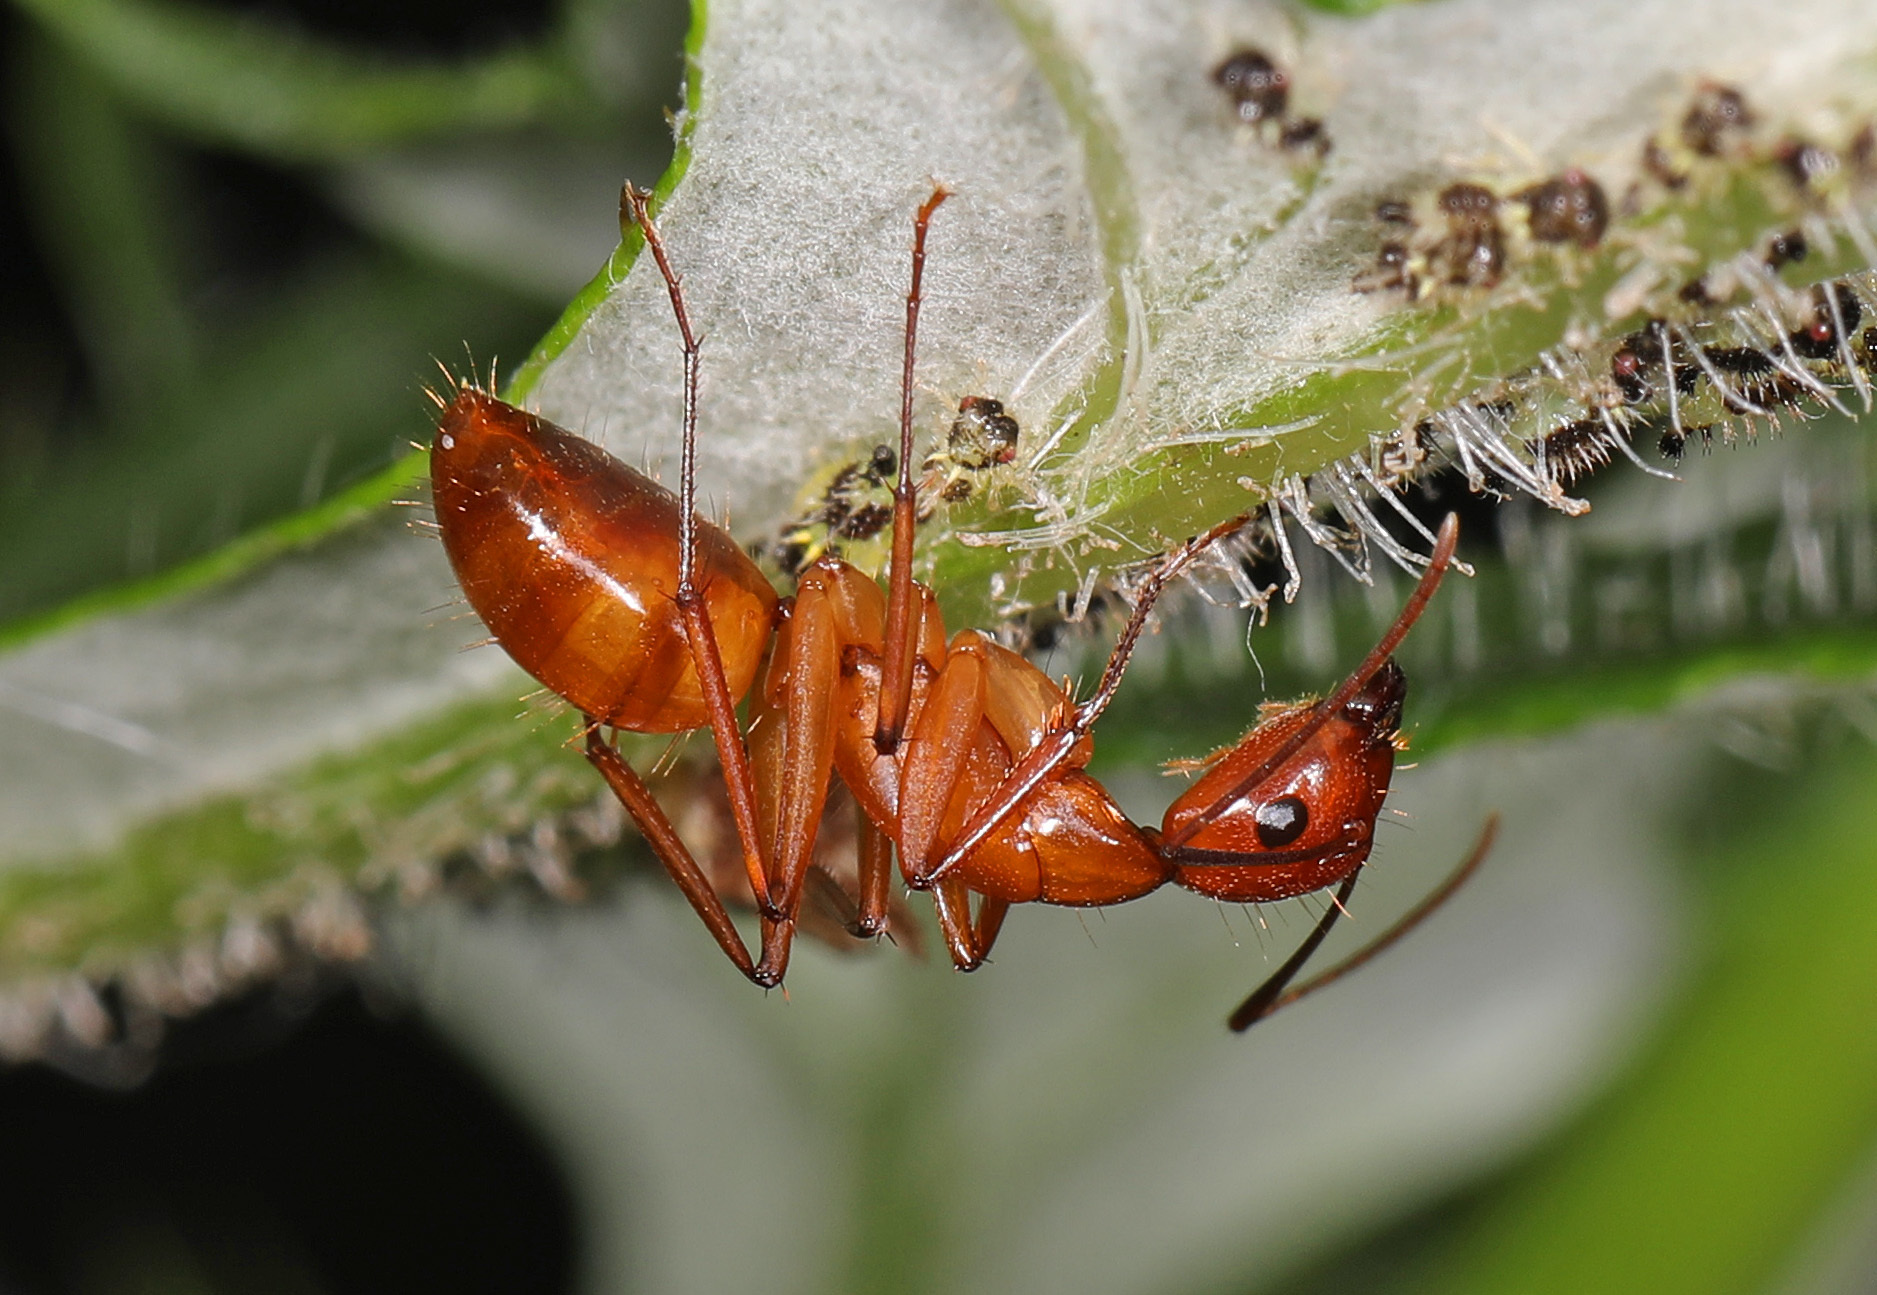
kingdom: Animalia
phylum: Arthropoda
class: Insecta
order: Hymenoptera
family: Formicidae
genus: Camponotus
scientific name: Camponotus castaneus
